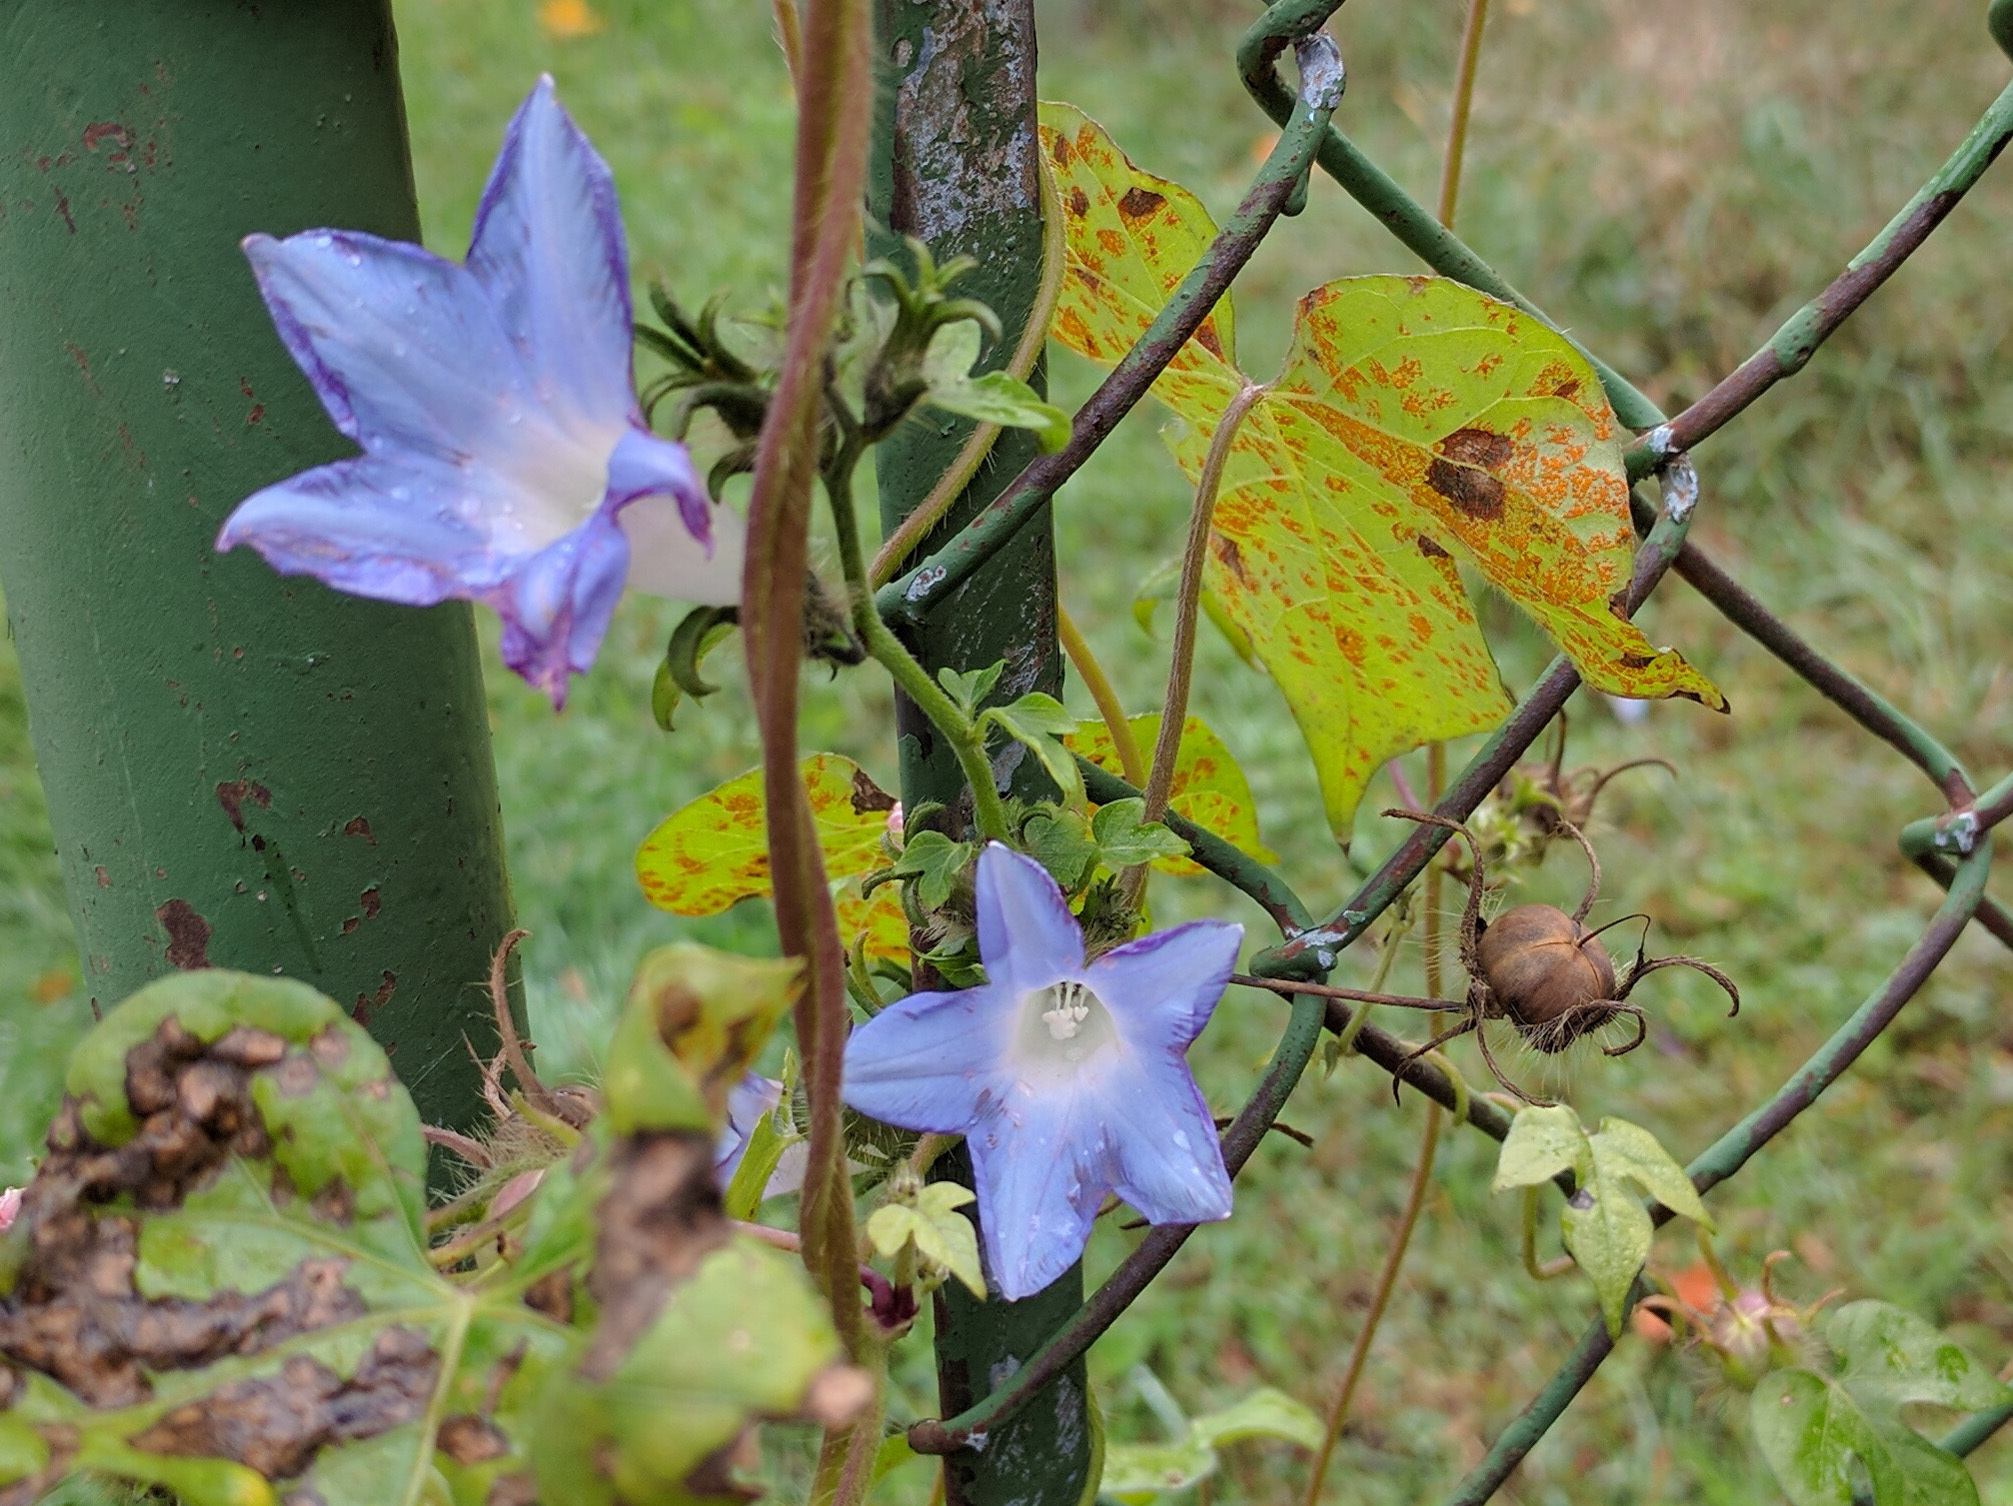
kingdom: Plantae
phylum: Tracheophyta
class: Magnoliopsida
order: Solanales
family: Convolvulaceae
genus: Ipomoea
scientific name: Ipomoea hederacea
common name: Ivy-leaved morning-glory
